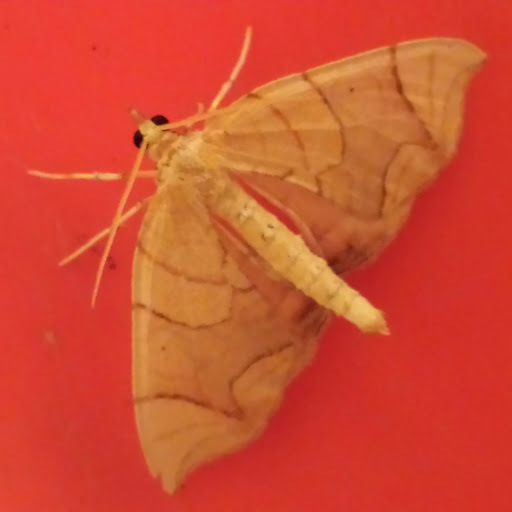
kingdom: Animalia
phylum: Arthropoda
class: Insecta
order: Lepidoptera
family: Geometridae
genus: Eulithis
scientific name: Eulithis
